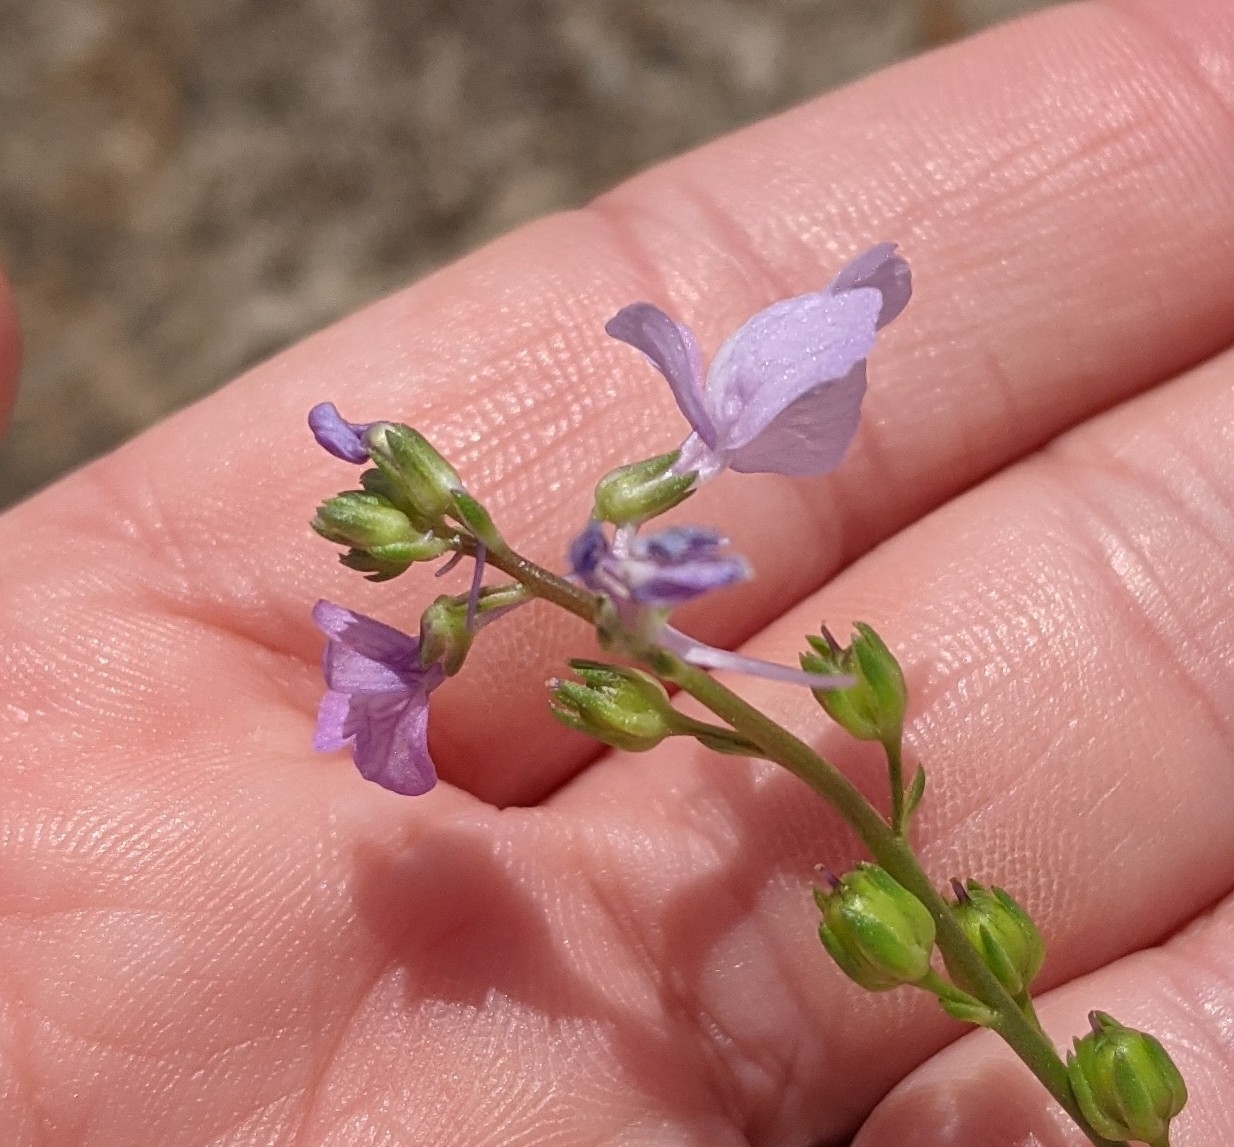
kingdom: Plantae
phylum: Tracheophyta
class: Magnoliopsida
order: Lamiales
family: Plantaginaceae
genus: Nuttallanthus
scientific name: Nuttallanthus texanus
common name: Texas toadflax
